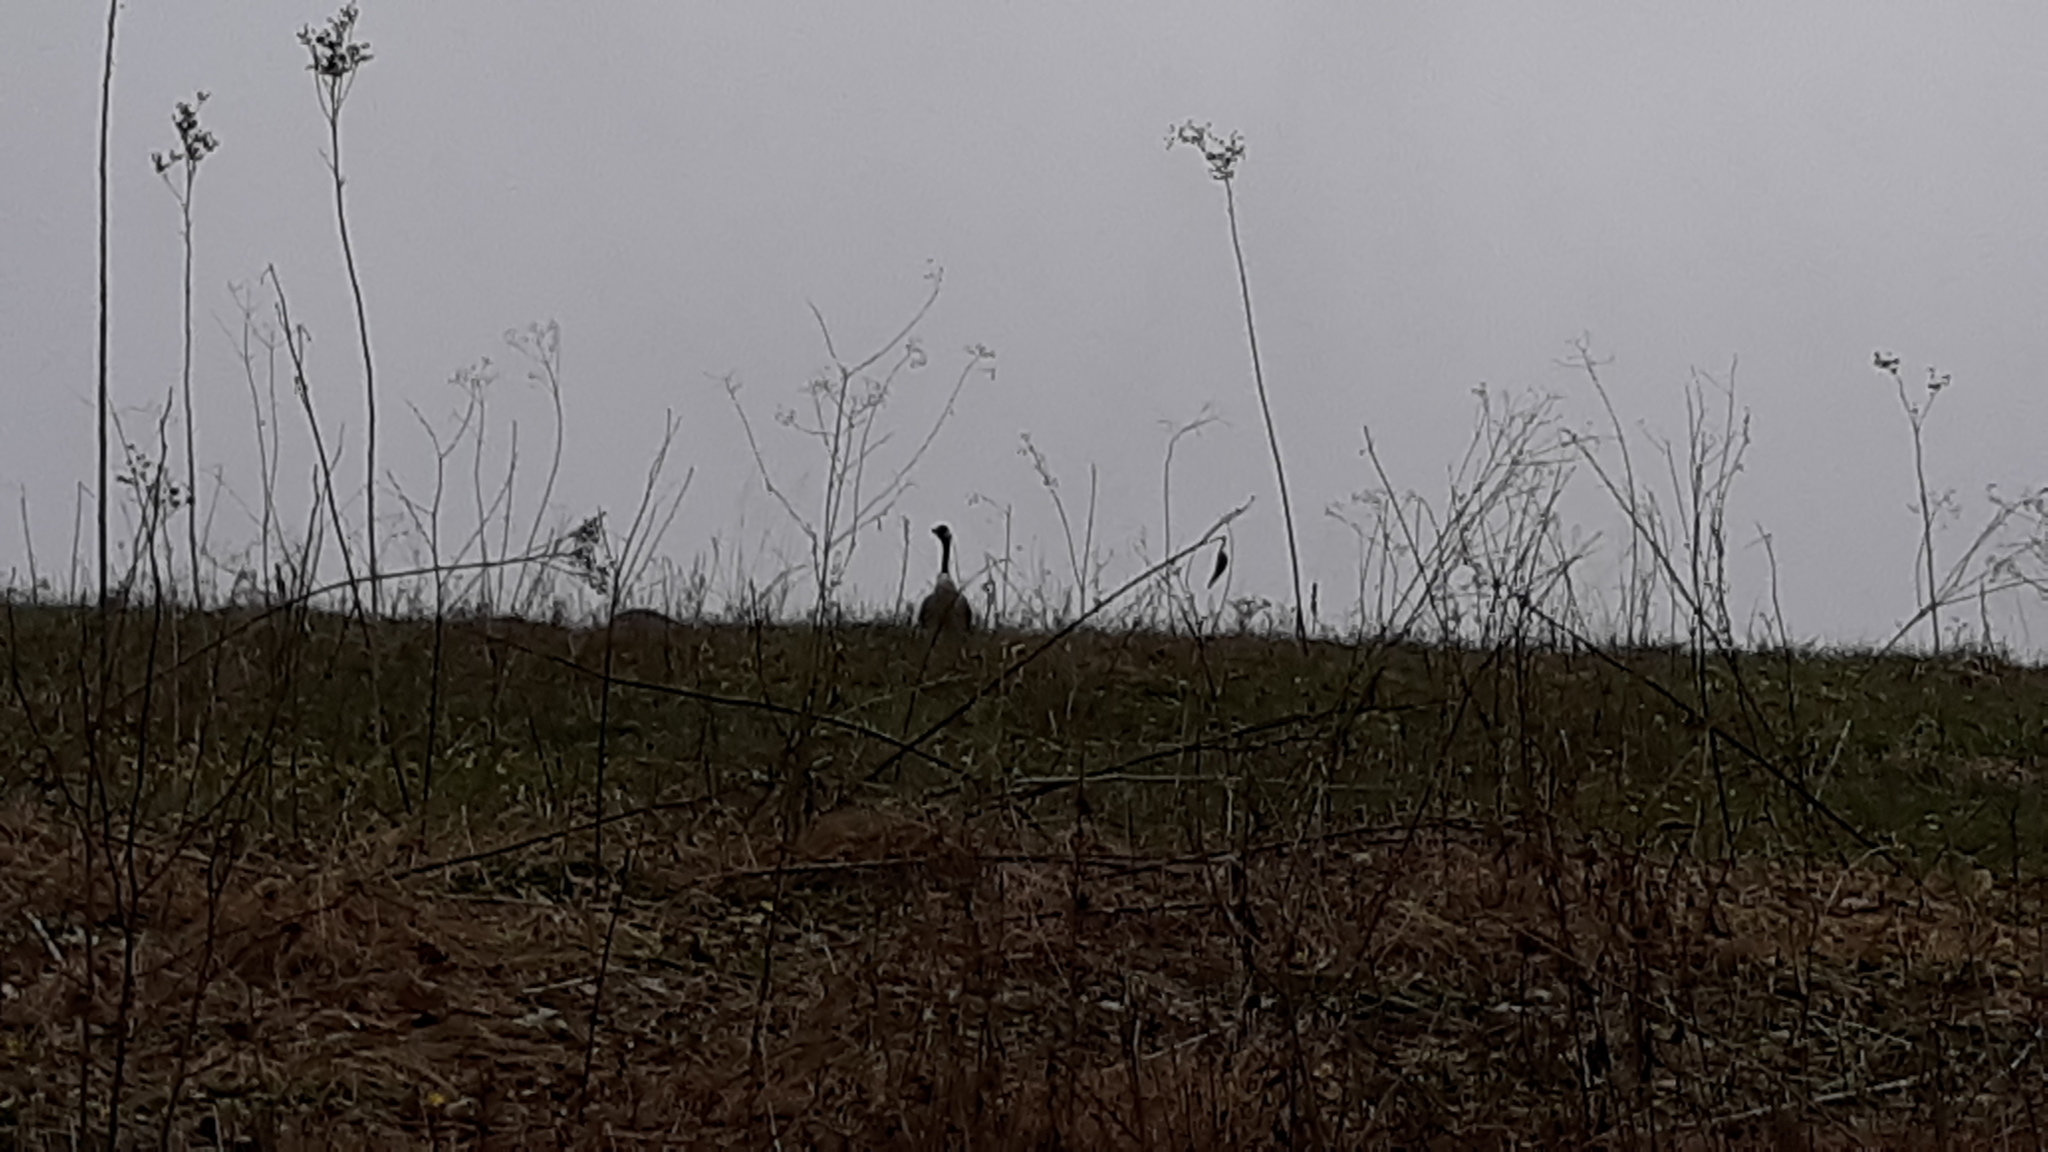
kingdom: Animalia
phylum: Chordata
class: Aves
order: Anseriformes
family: Anatidae
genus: Branta
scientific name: Branta canadensis
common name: Canada goose
